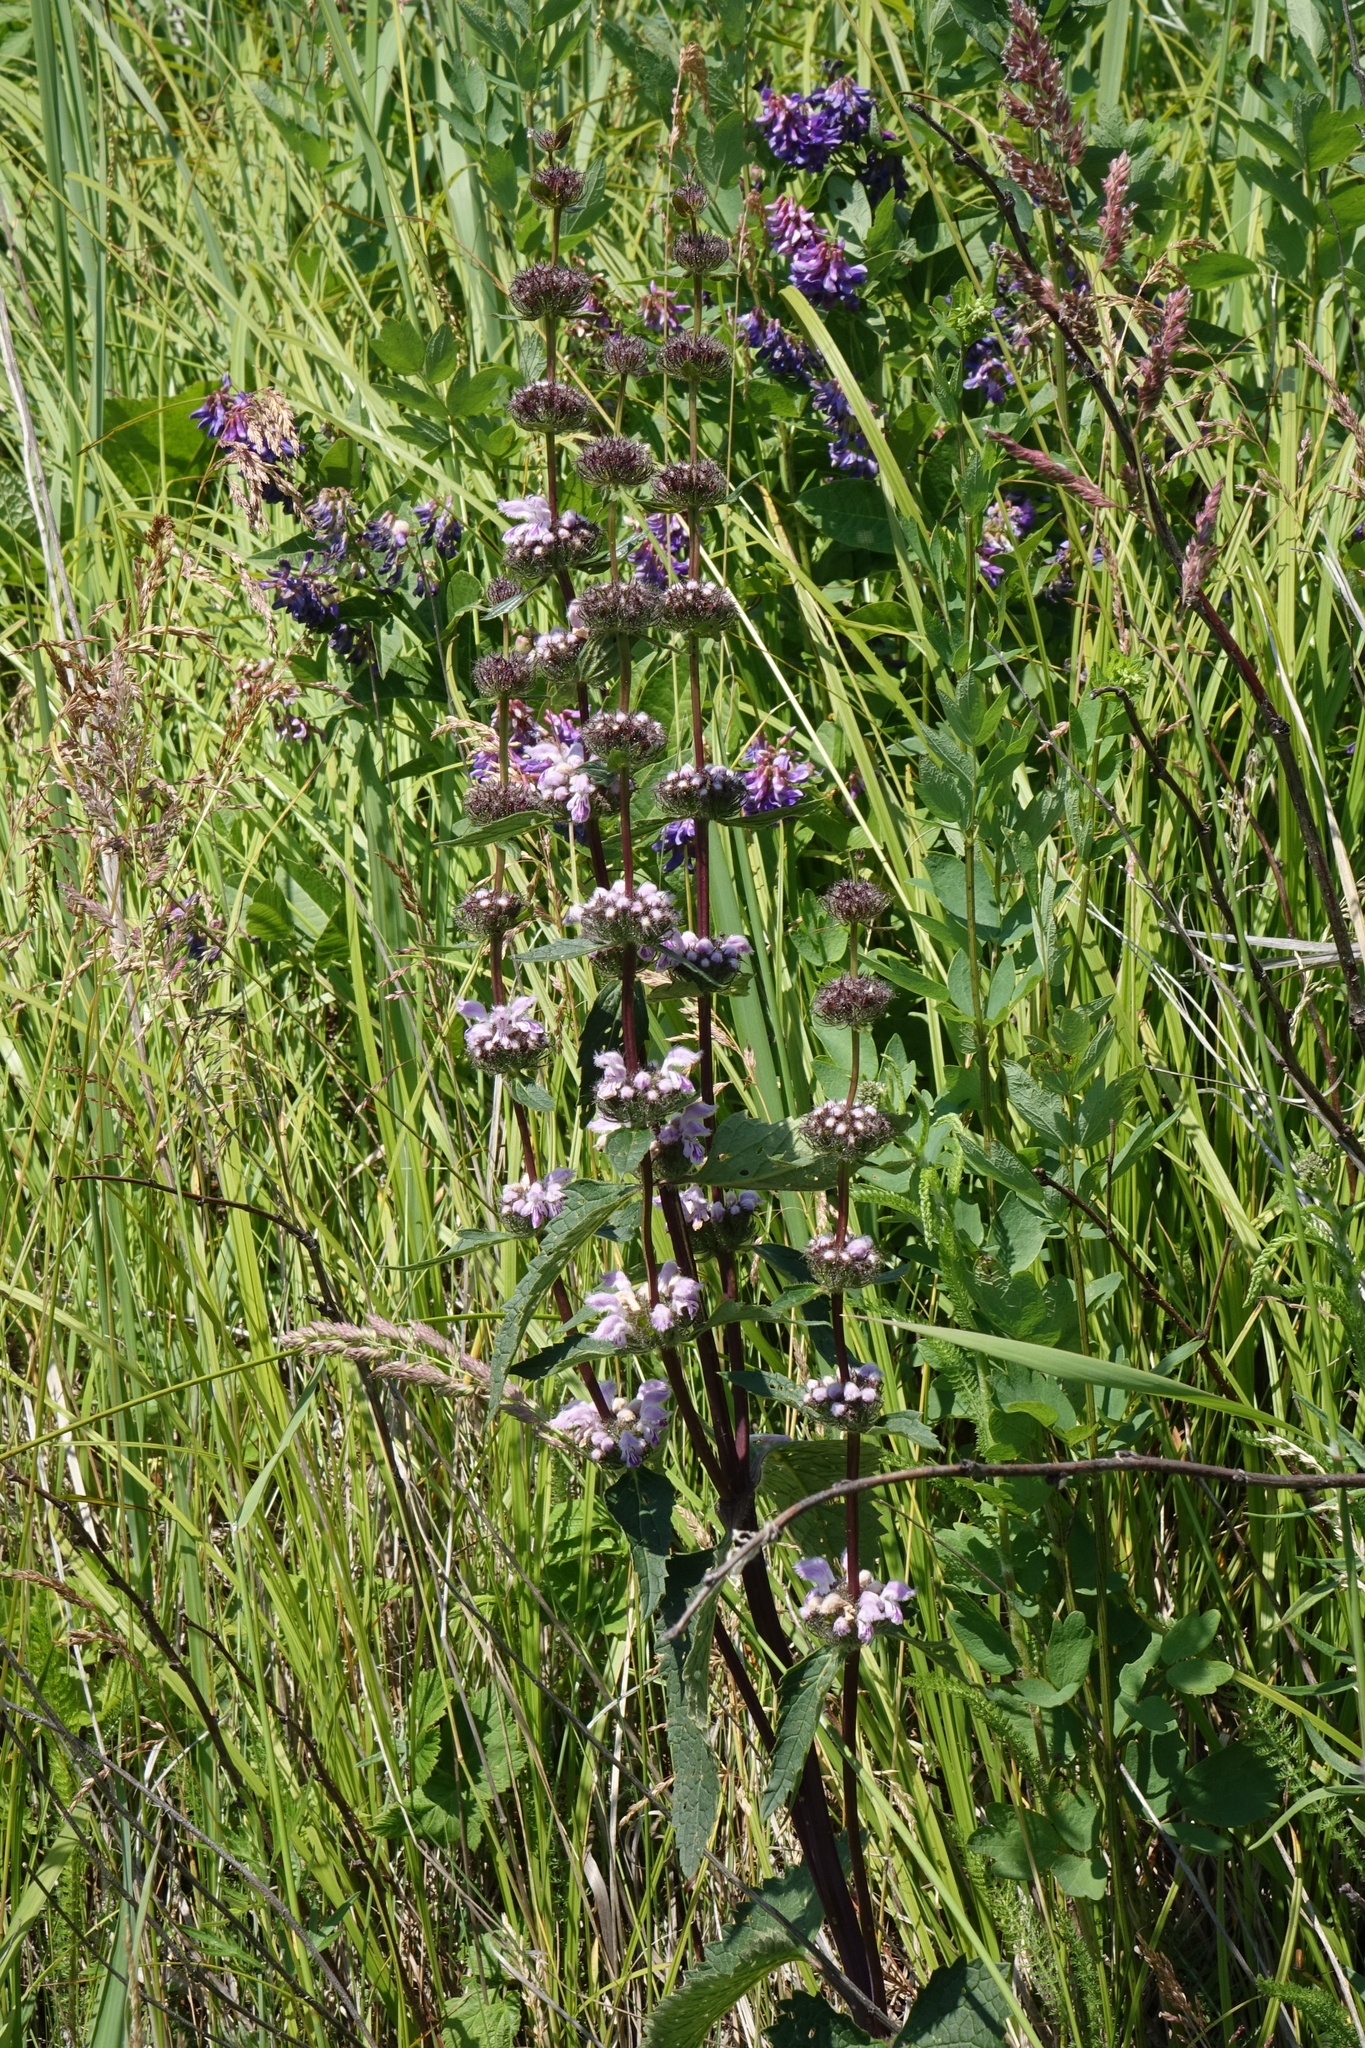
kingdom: Plantae
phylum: Tracheophyta
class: Magnoliopsida
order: Lamiales
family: Lamiaceae
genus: Phlomoides
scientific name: Phlomoides tuberosa
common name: Tuberous jerusalem sage
